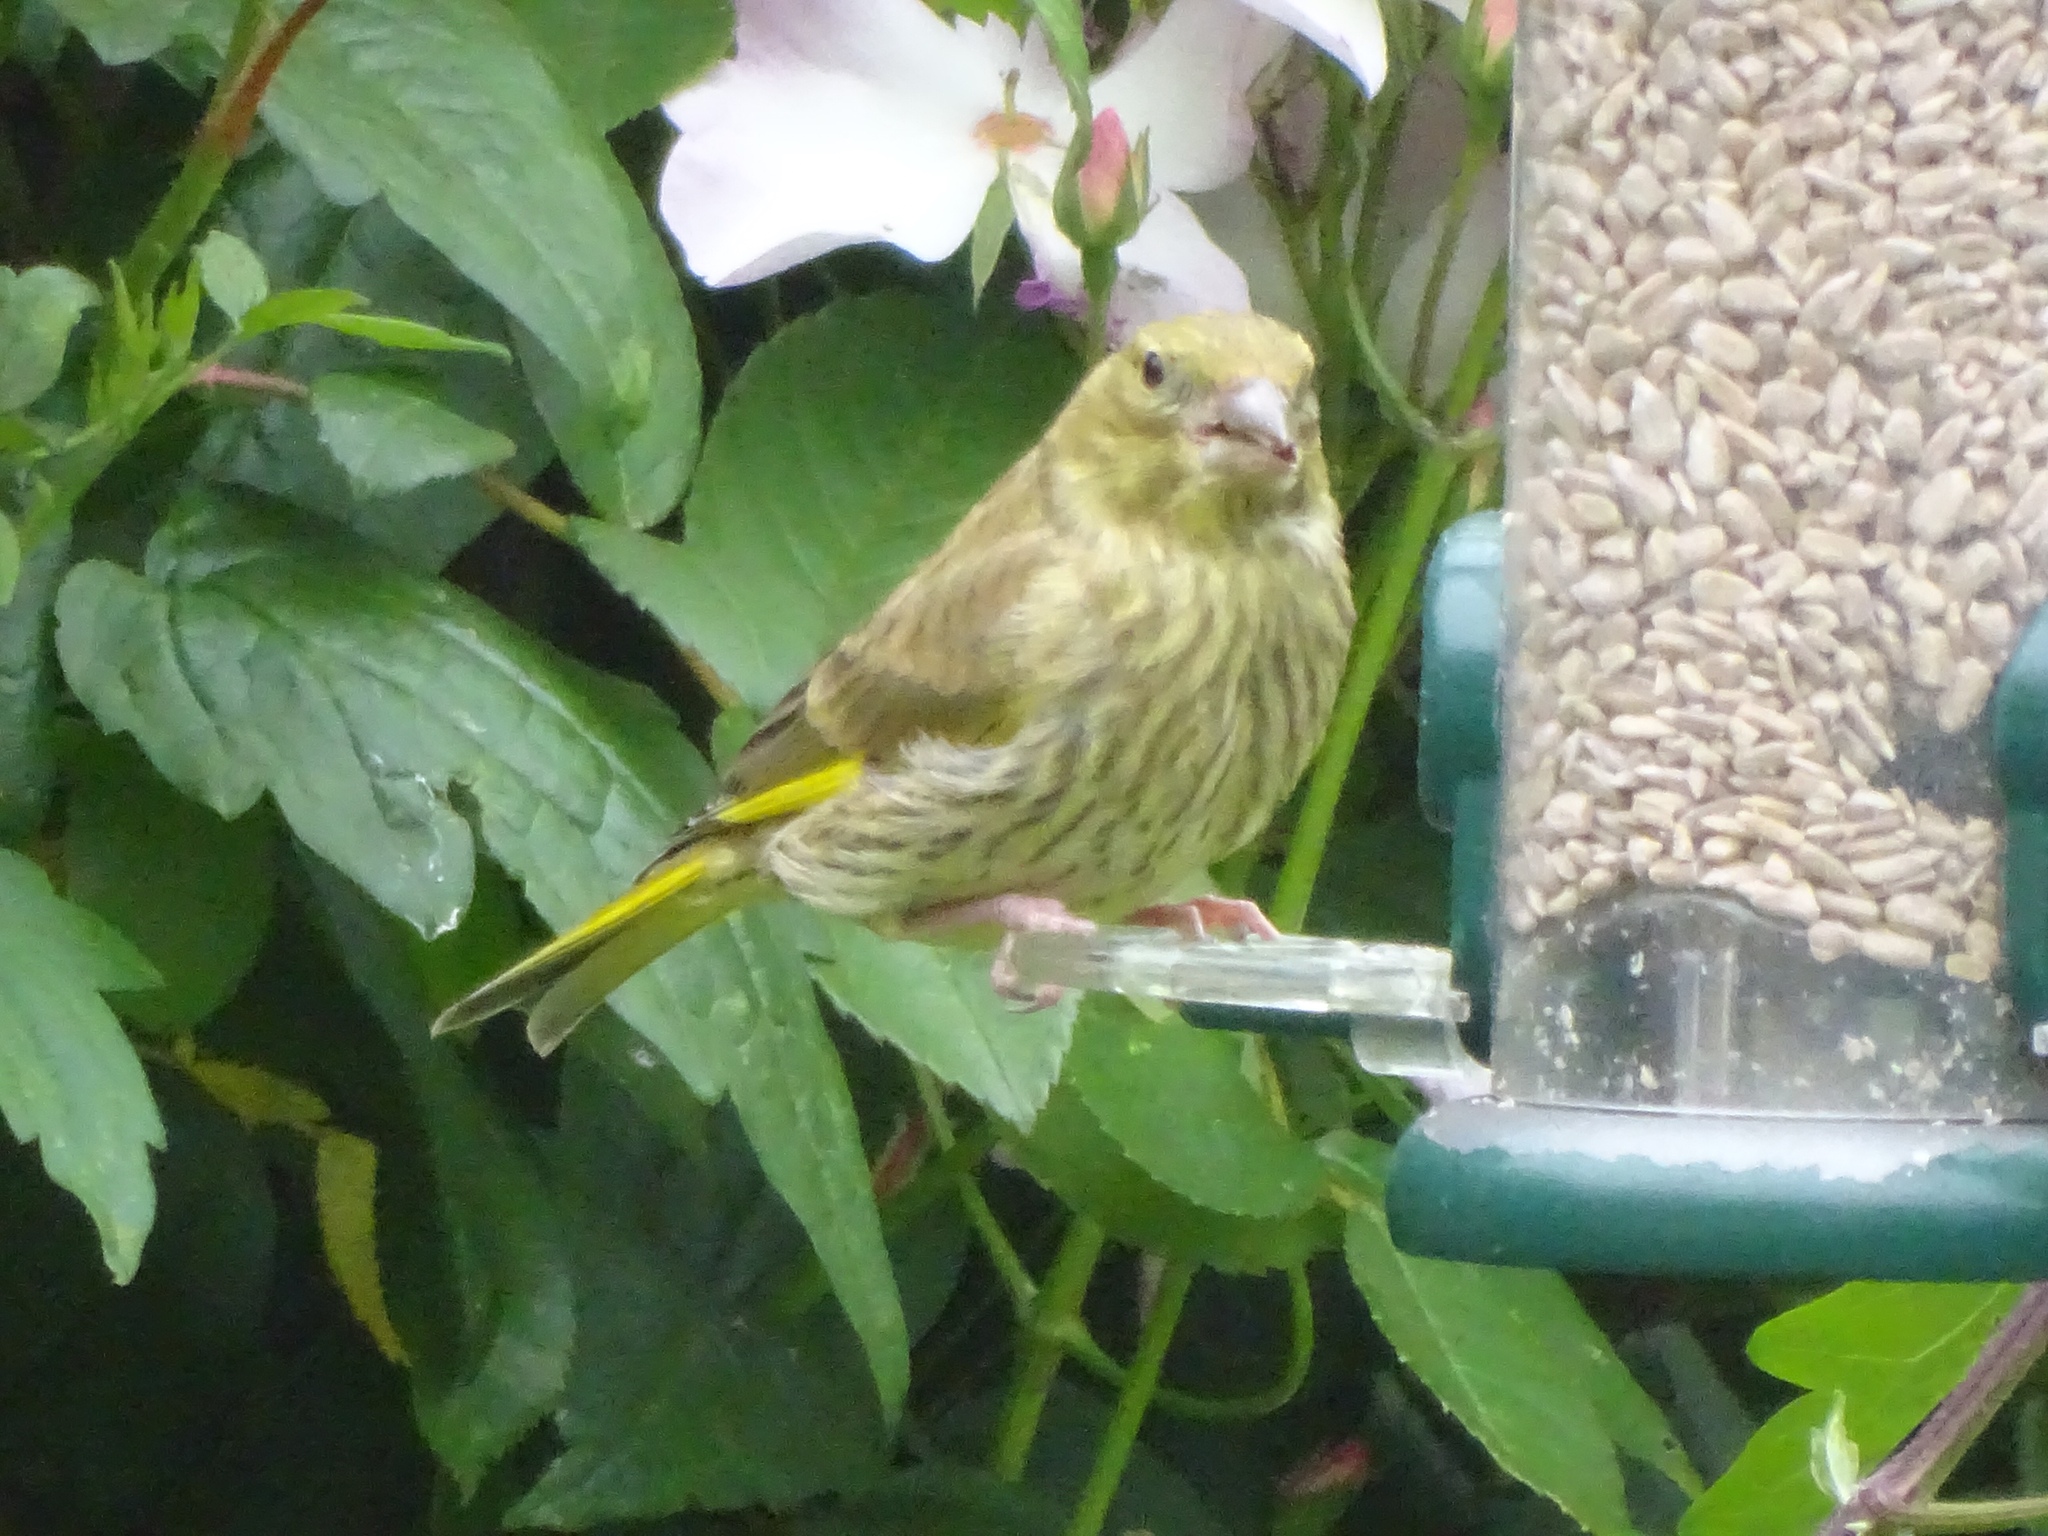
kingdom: Plantae
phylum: Tracheophyta
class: Liliopsida
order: Poales
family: Poaceae
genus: Chloris
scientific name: Chloris chloris
